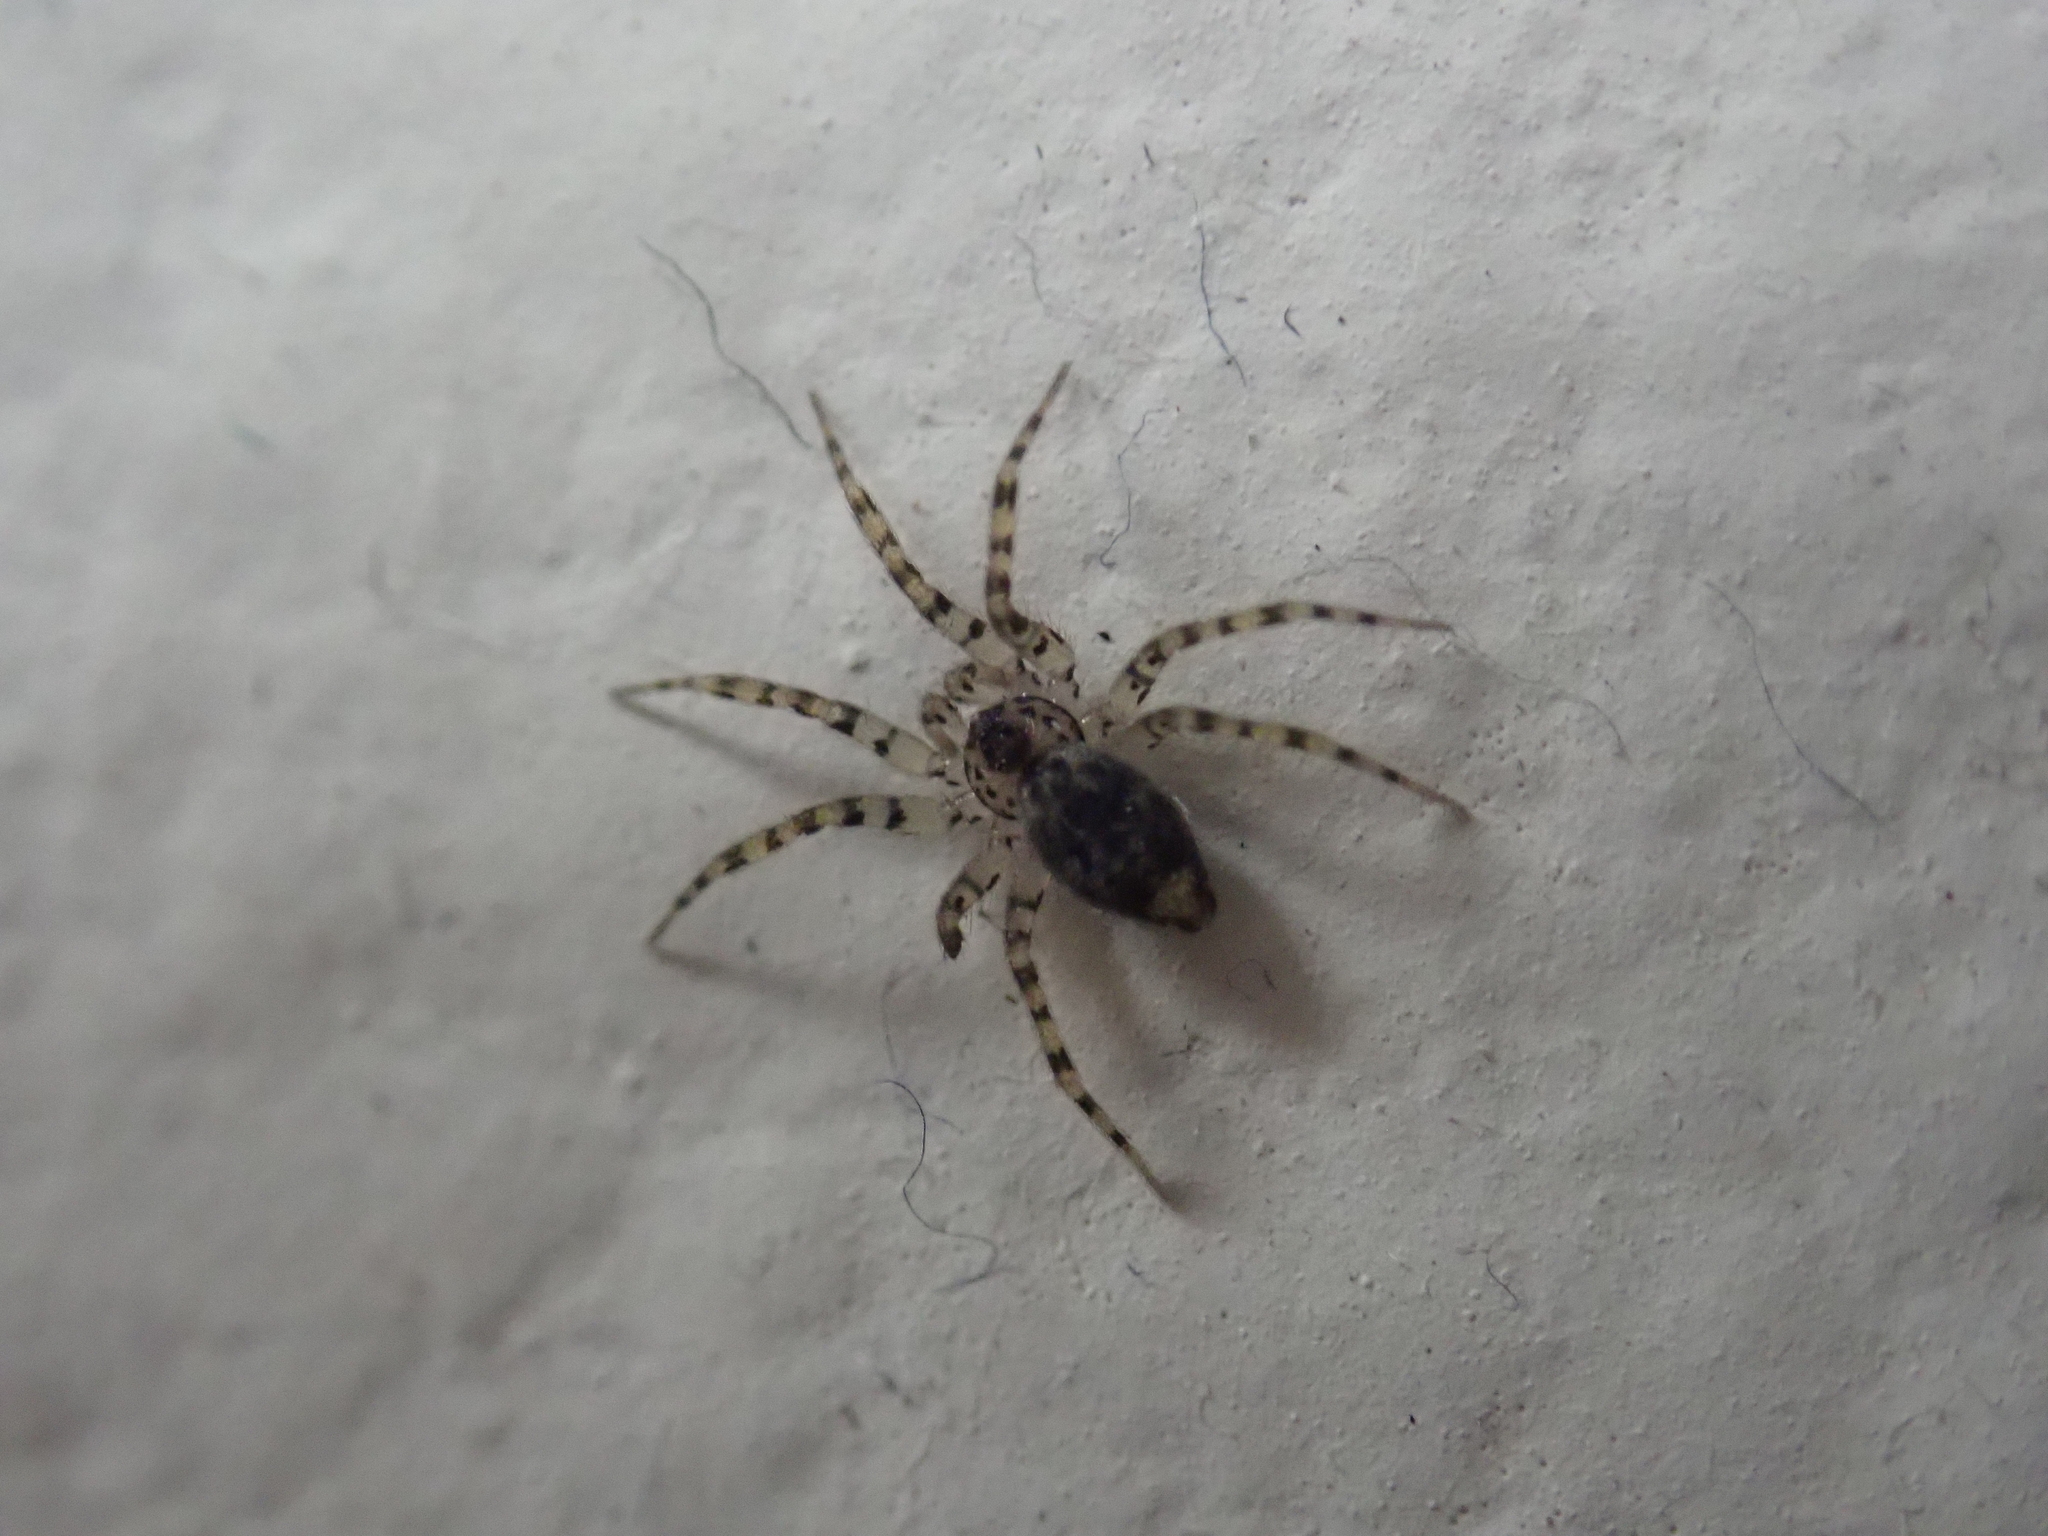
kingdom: Animalia
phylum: Arthropoda
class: Arachnida
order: Araneae
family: Oecobiidae
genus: Oecobius
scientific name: Oecobius navus
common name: Flatmesh weaver
